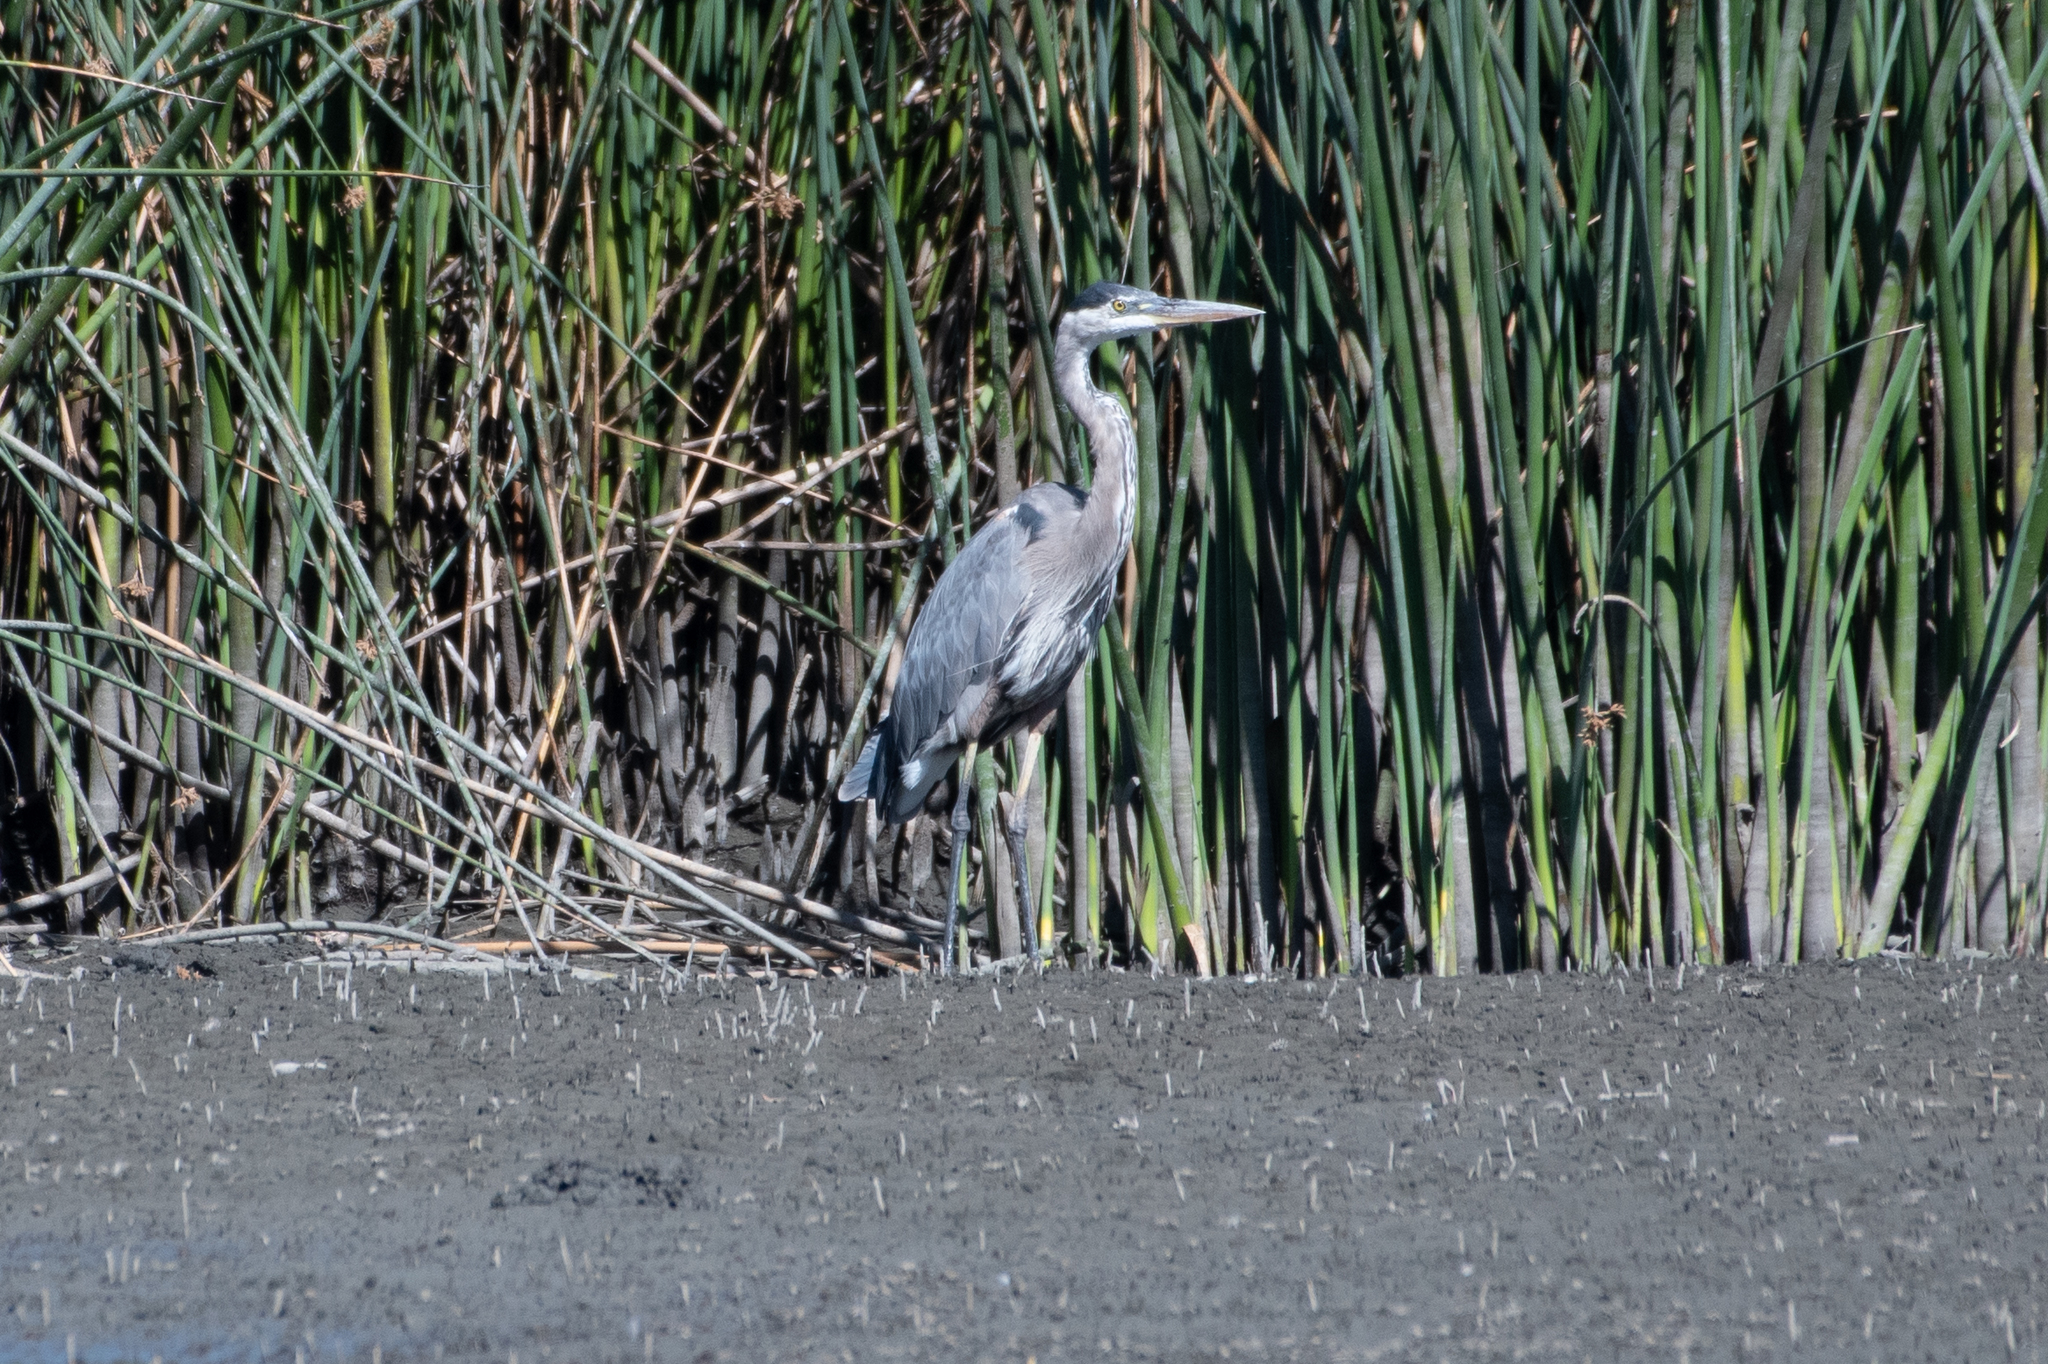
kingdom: Animalia
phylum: Chordata
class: Aves
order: Pelecaniformes
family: Ardeidae
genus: Ardea
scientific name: Ardea herodias
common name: Great blue heron
